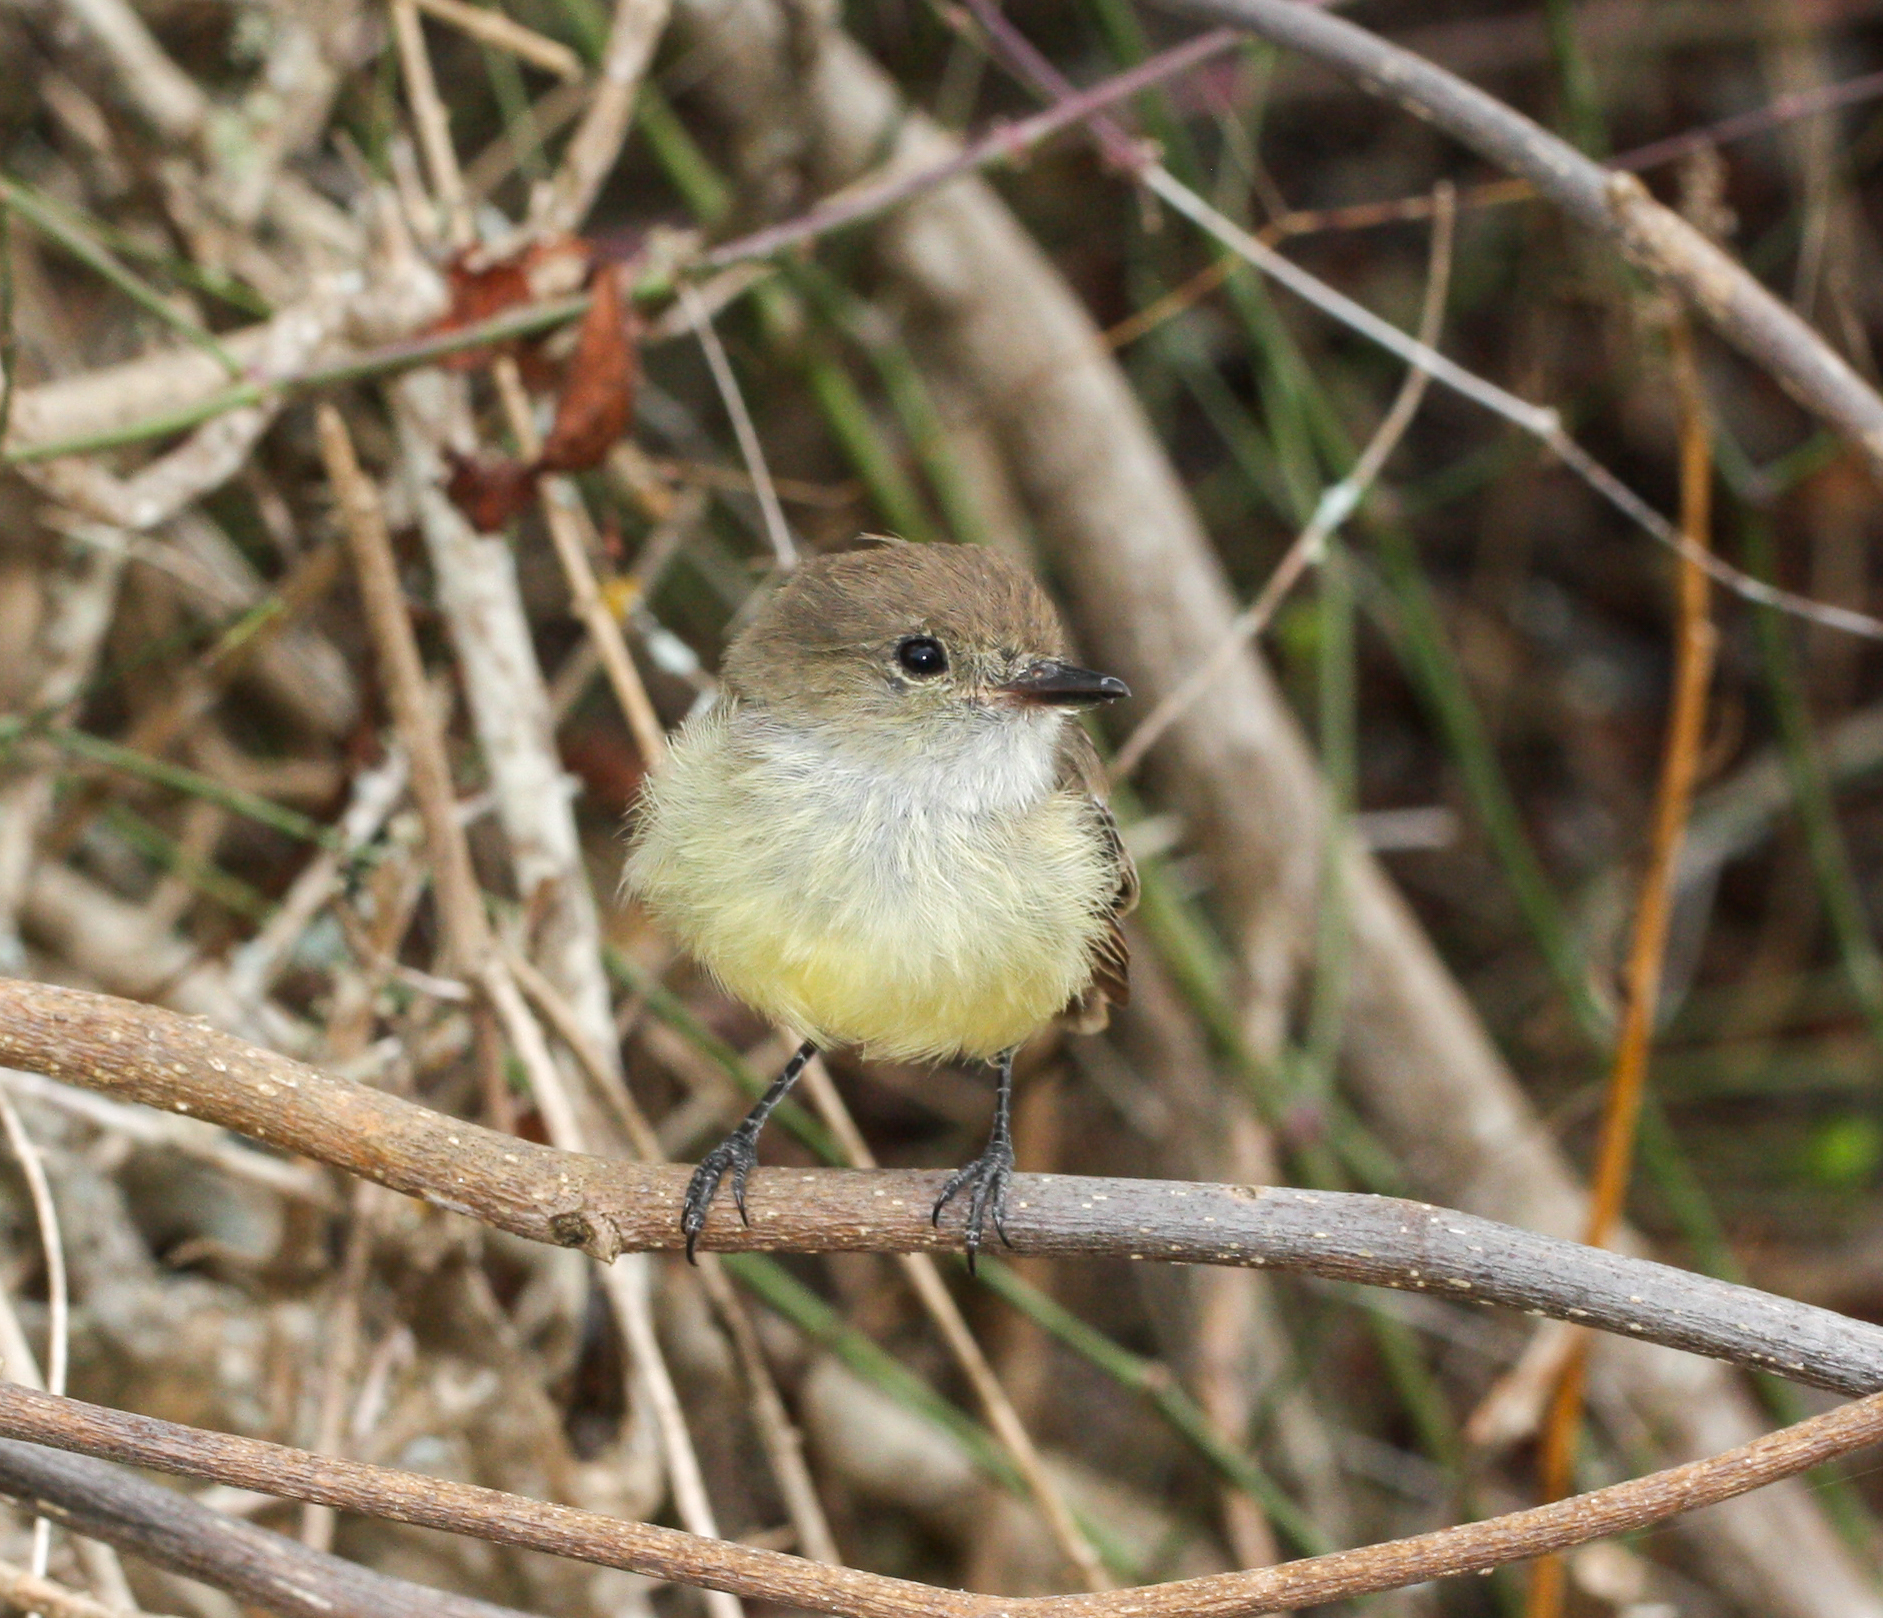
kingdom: Animalia
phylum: Chordata
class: Aves
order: Passeriformes
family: Tyrannidae
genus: Myiarchus
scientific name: Myiarchus magnirostris
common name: Galapagos flycatcher
